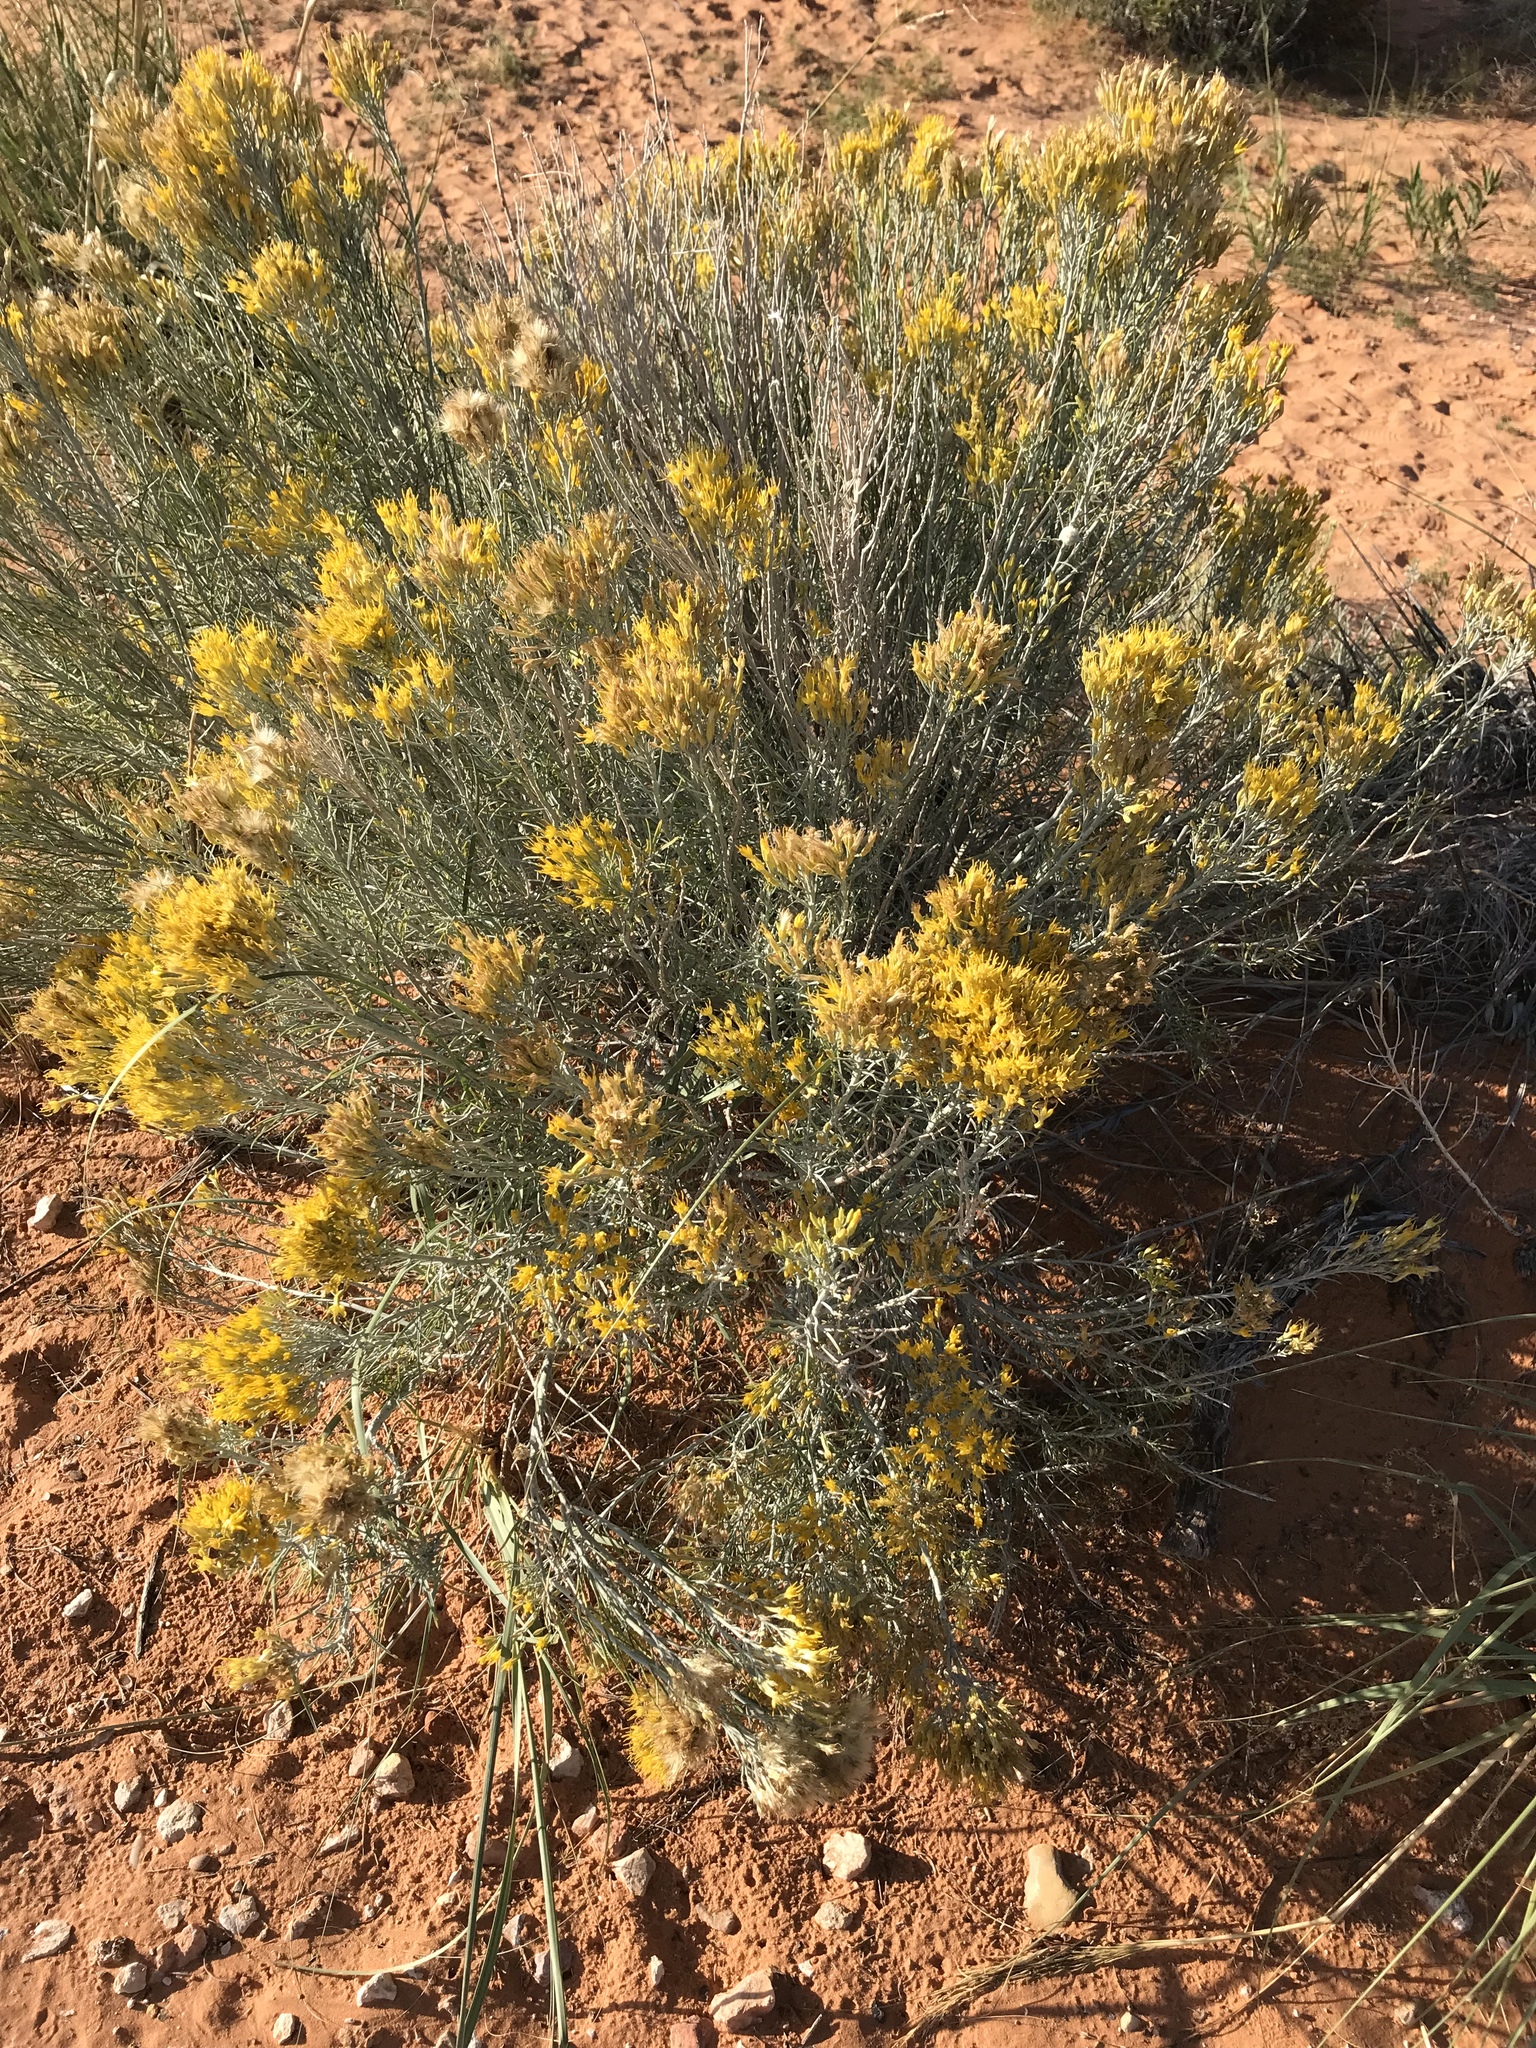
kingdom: Plantae
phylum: Tracheophyta
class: Magnoliopsida
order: Asterales
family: Asteraceae
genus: Ericameria
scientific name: Ericameria nauseosa
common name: Rubber rabbitbrush
